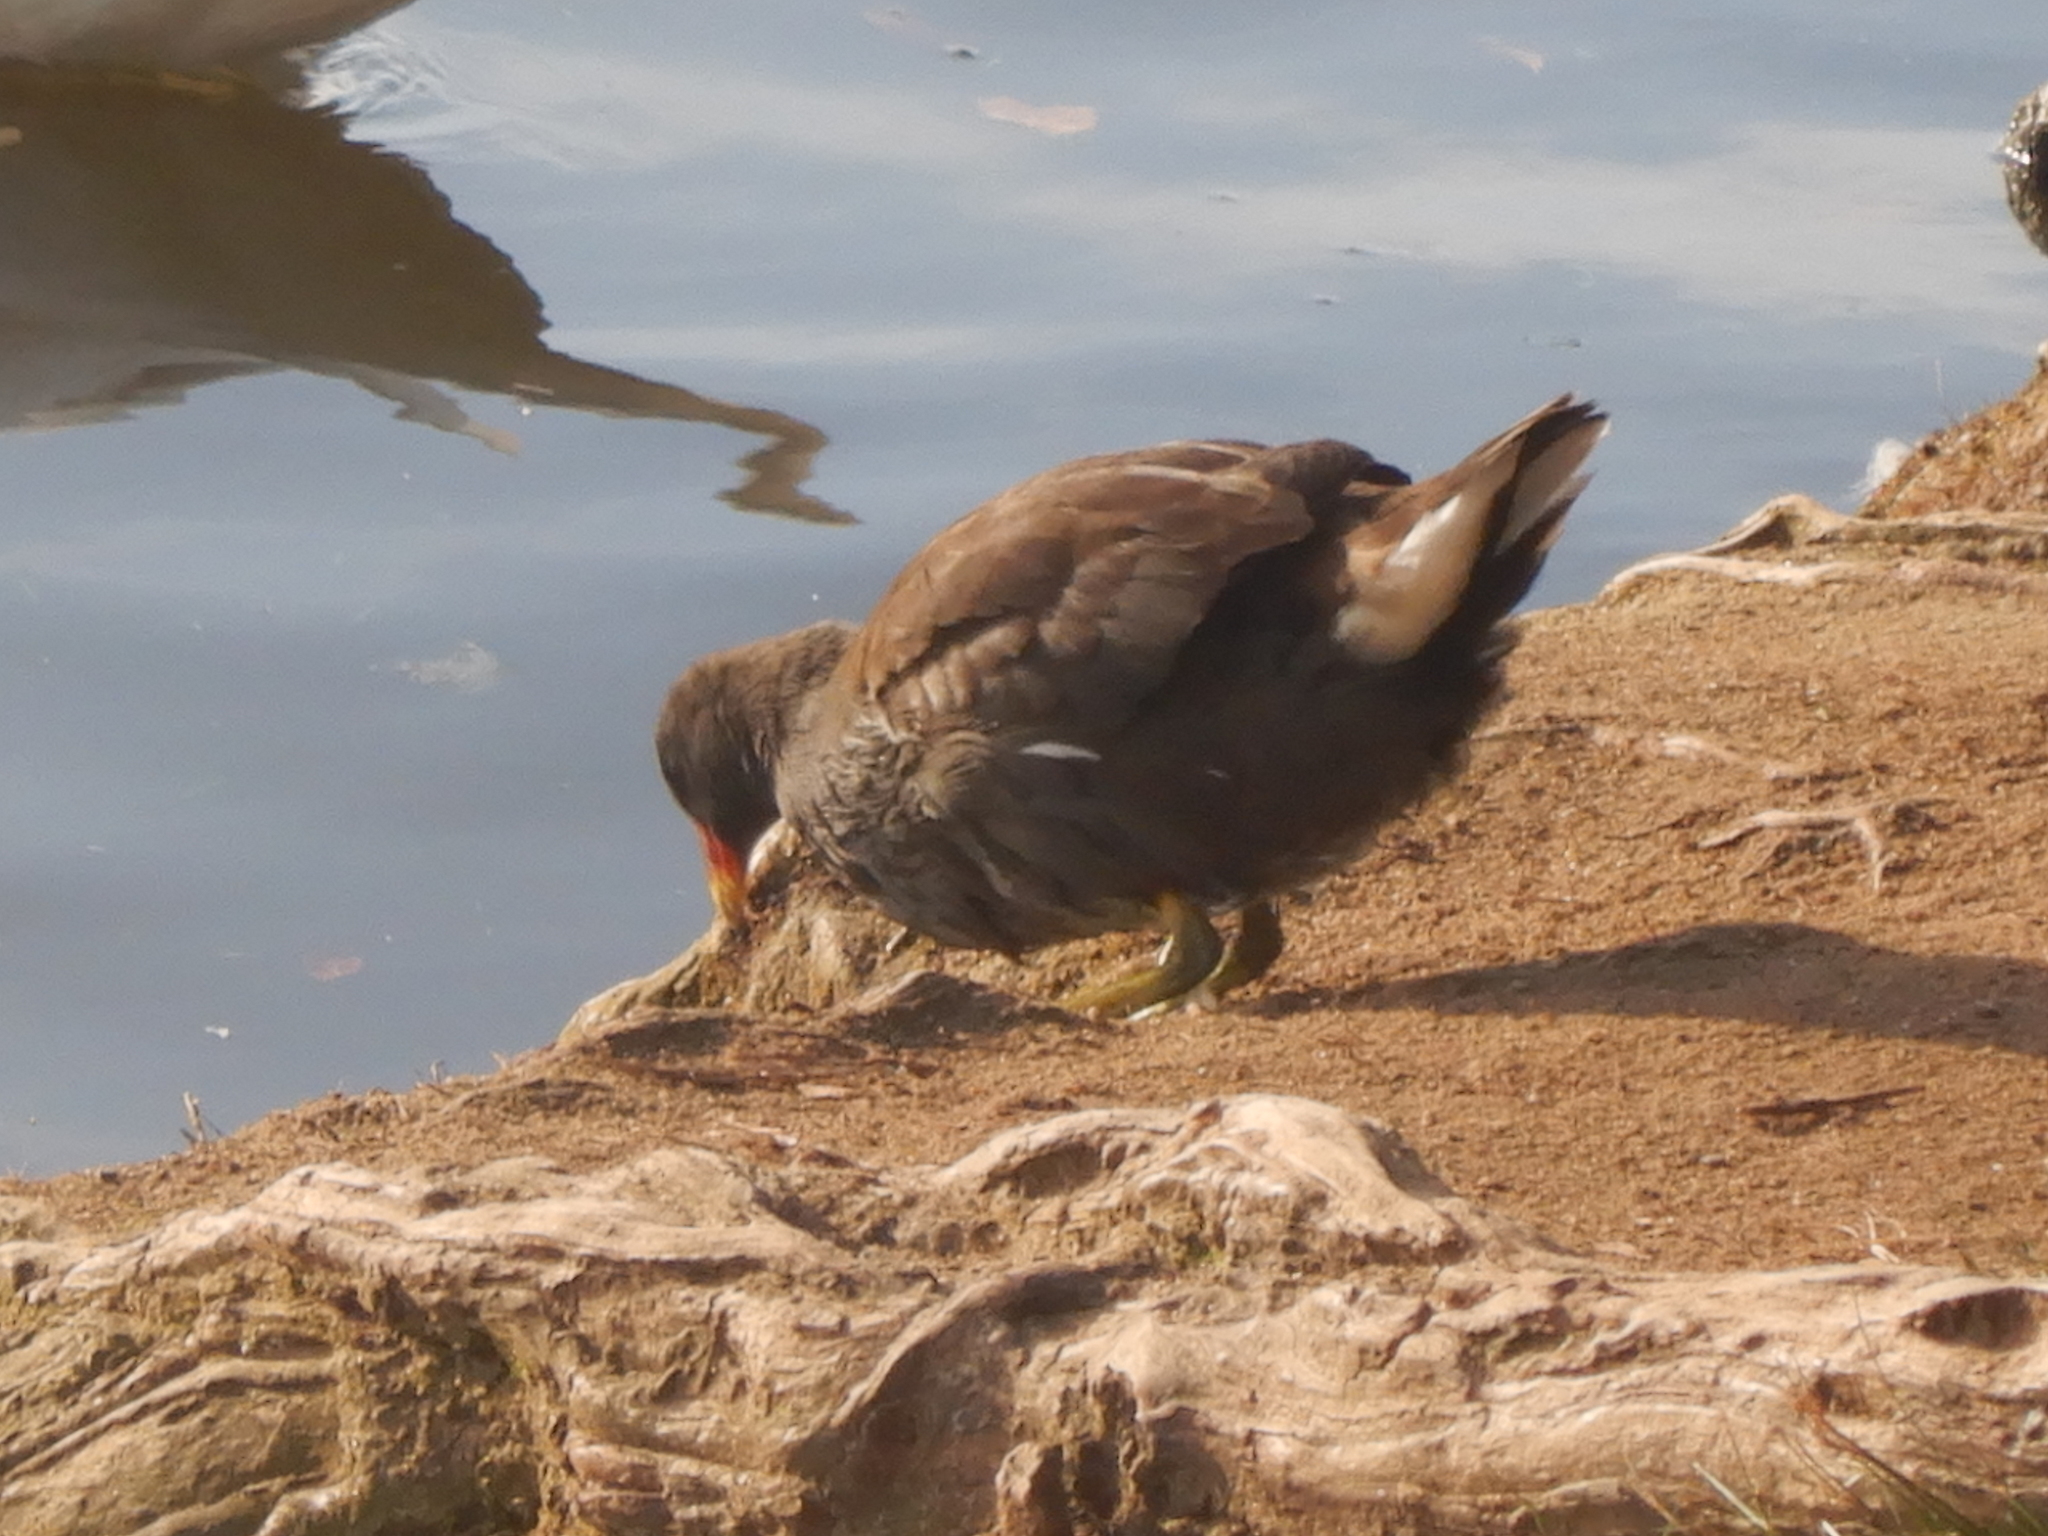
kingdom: Animalia
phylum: Chordata
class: Aves
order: Gruiformes
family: Rallidae
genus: Gallinula
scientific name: Gallinula chloropus
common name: Common moorhen
